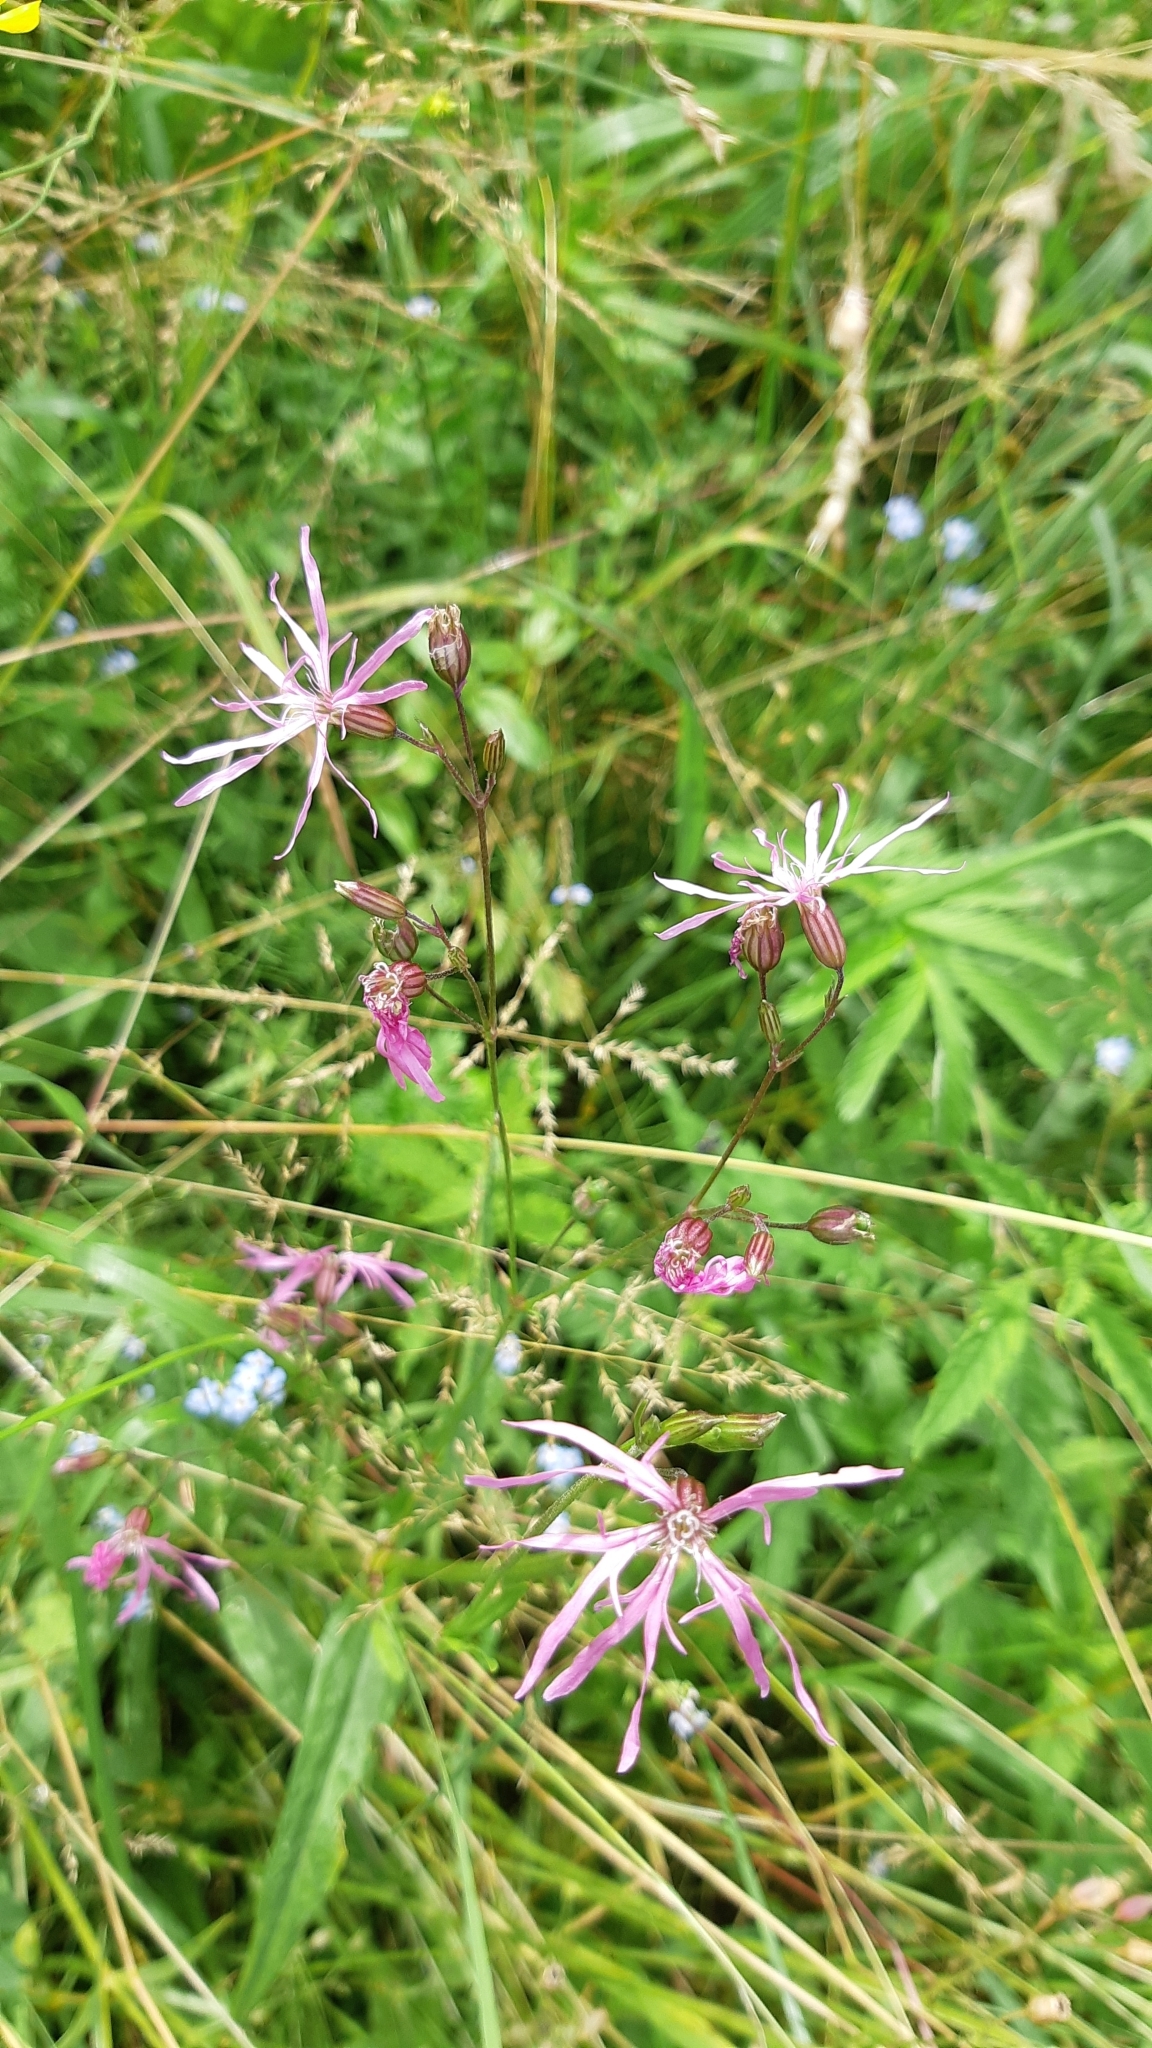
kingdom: Plantae
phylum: Tracheophyta
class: Magnoliopsida
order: Caryophyllales
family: Caryophyllaceae
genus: Silene
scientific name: Silene flos-cuculi
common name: Ragged-robin
